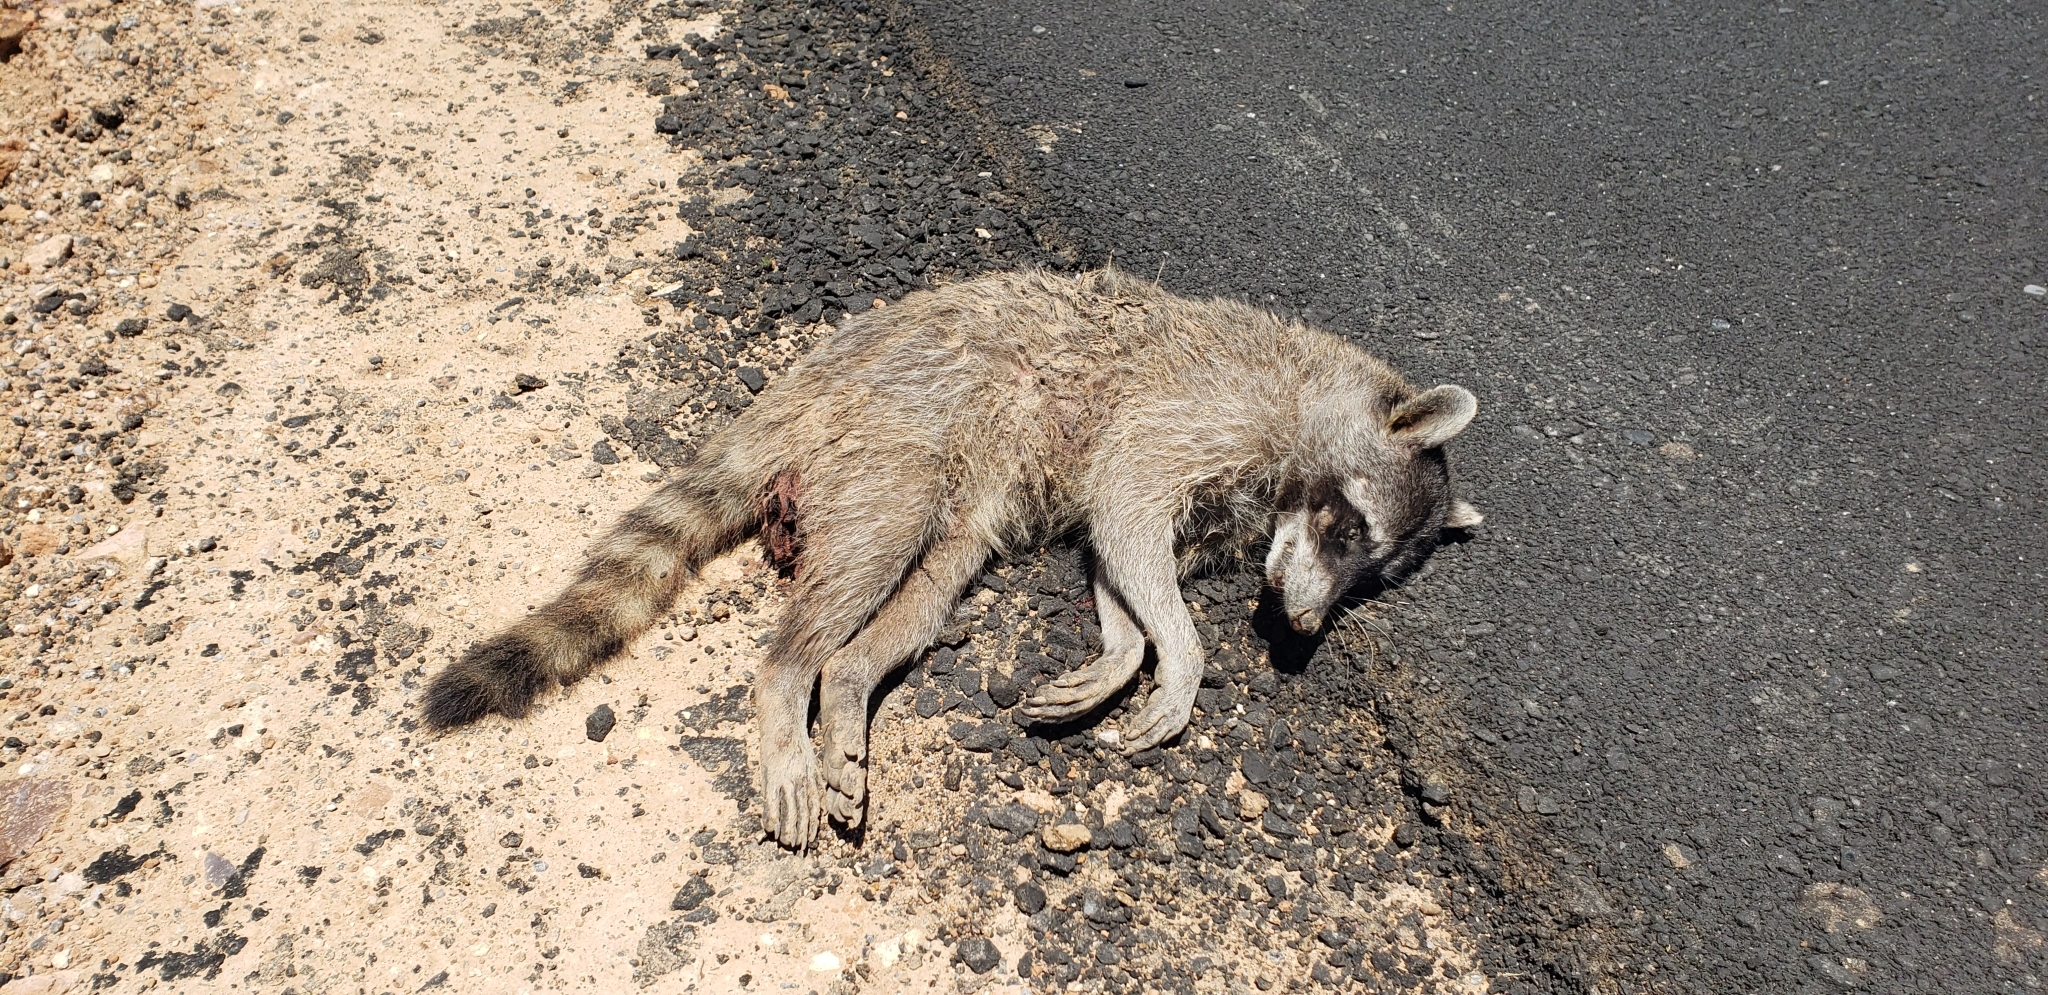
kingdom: Animalia
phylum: Chordata
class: Mammalia
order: Carnivora
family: Procyonidae
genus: Procyon
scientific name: Procyon lotor
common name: Raccoon
